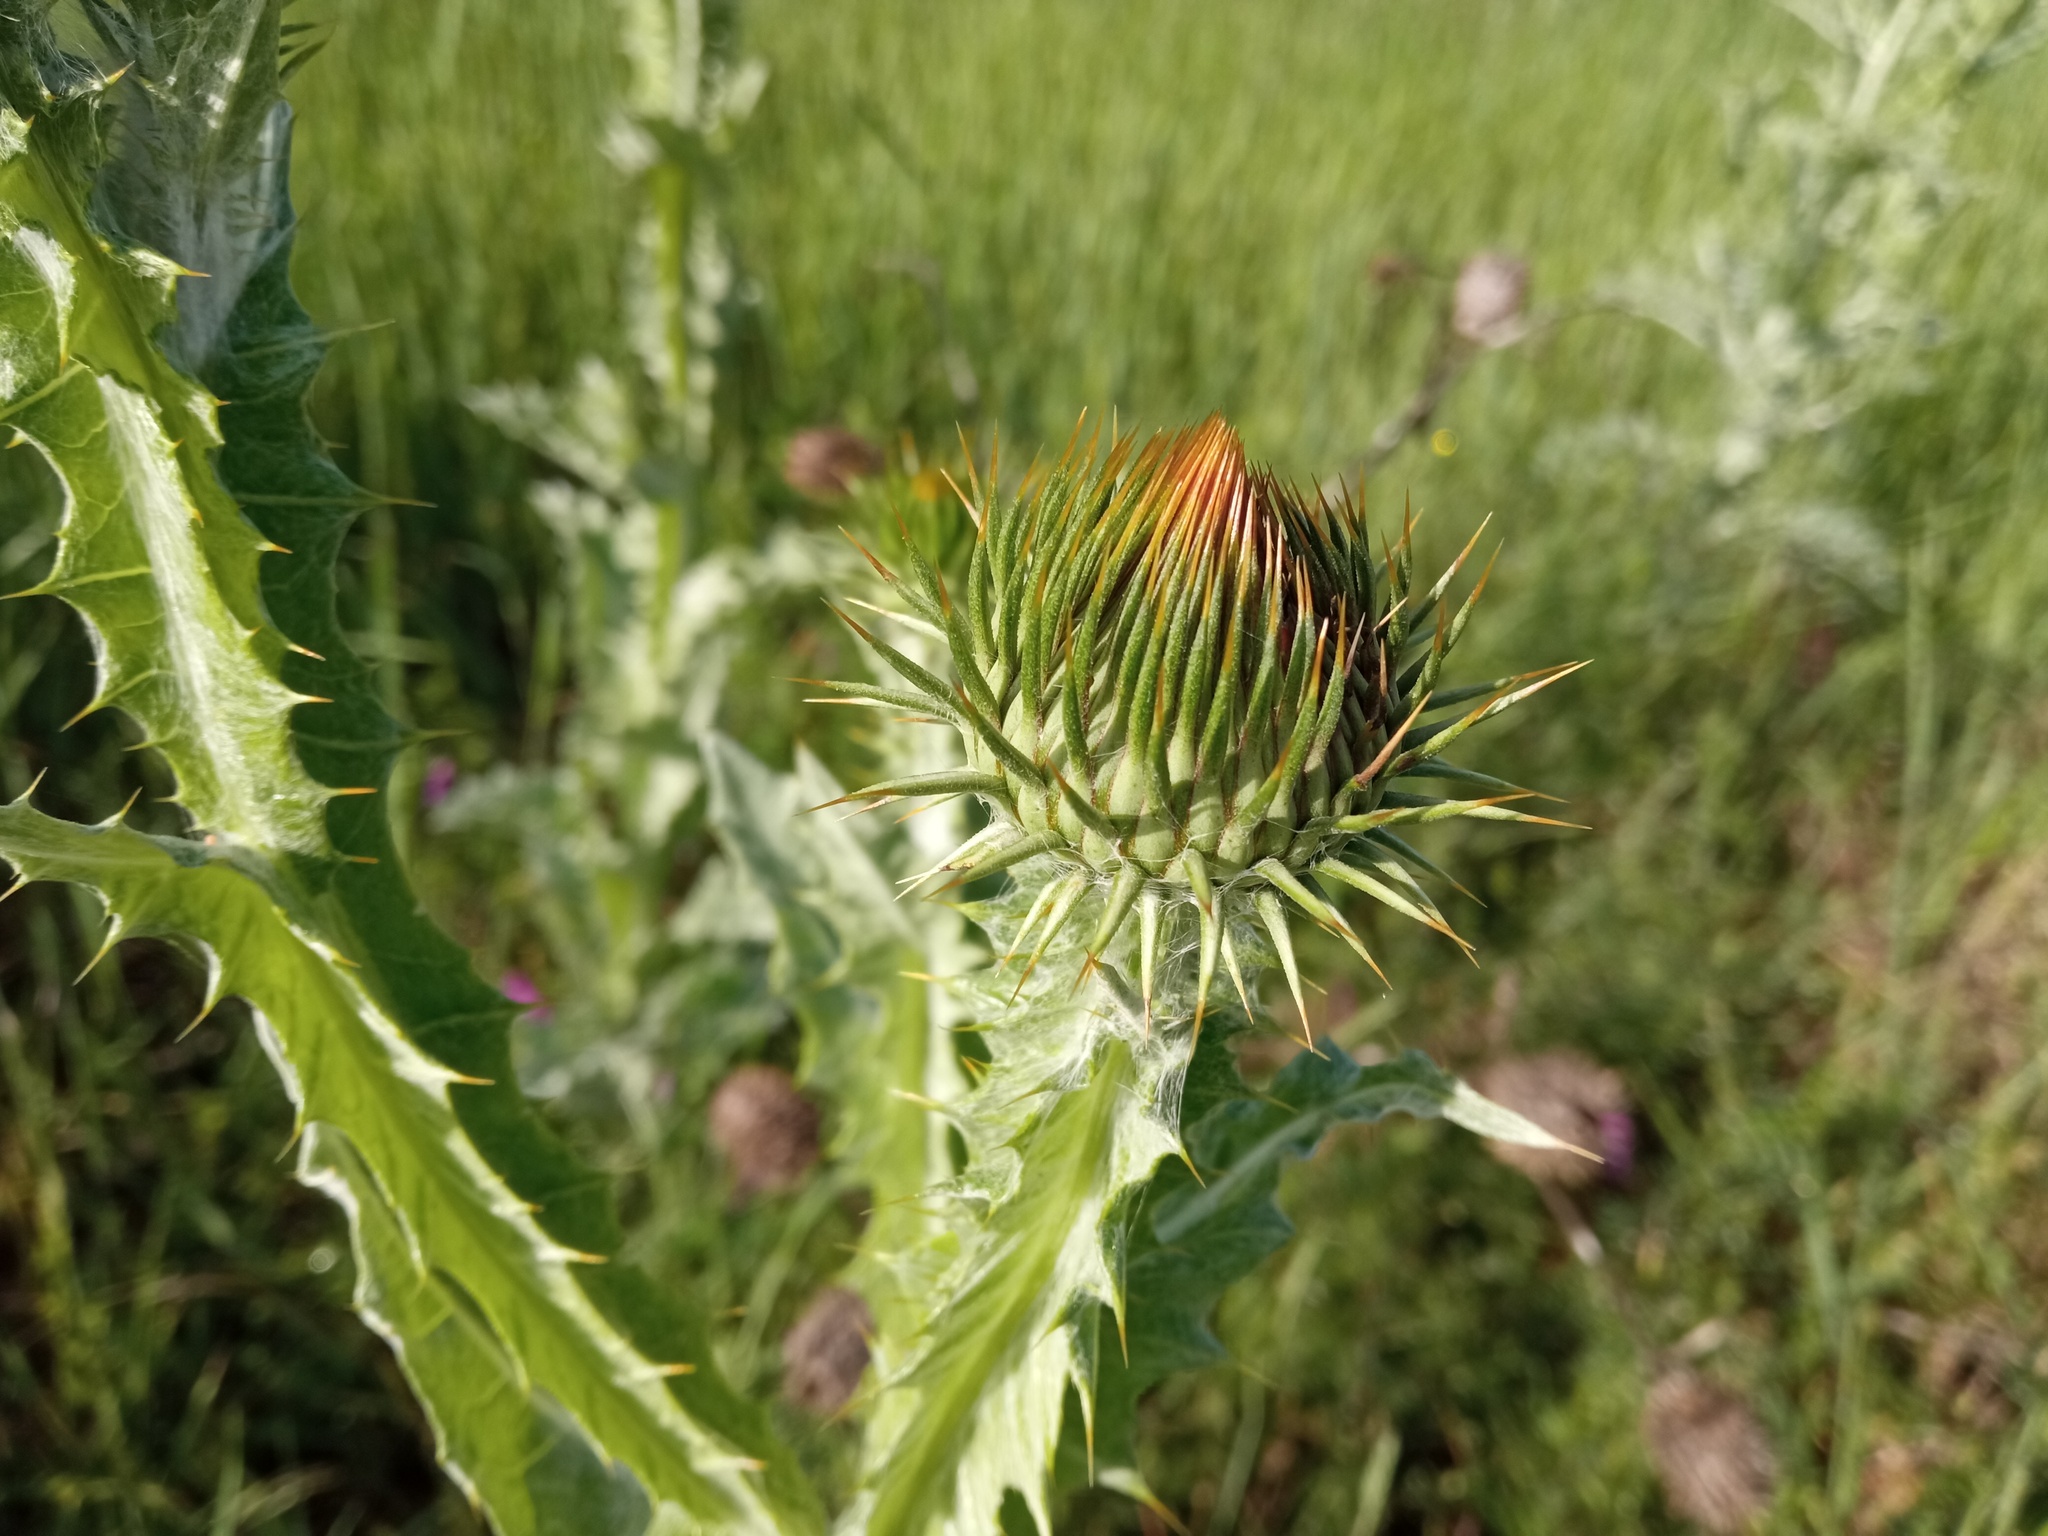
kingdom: Plantae
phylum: Tracheophyta
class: Magnoliopsida
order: Asterales
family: Asteraceae
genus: Onopordum
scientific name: Onopordum acanthium
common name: Scotch thistle
